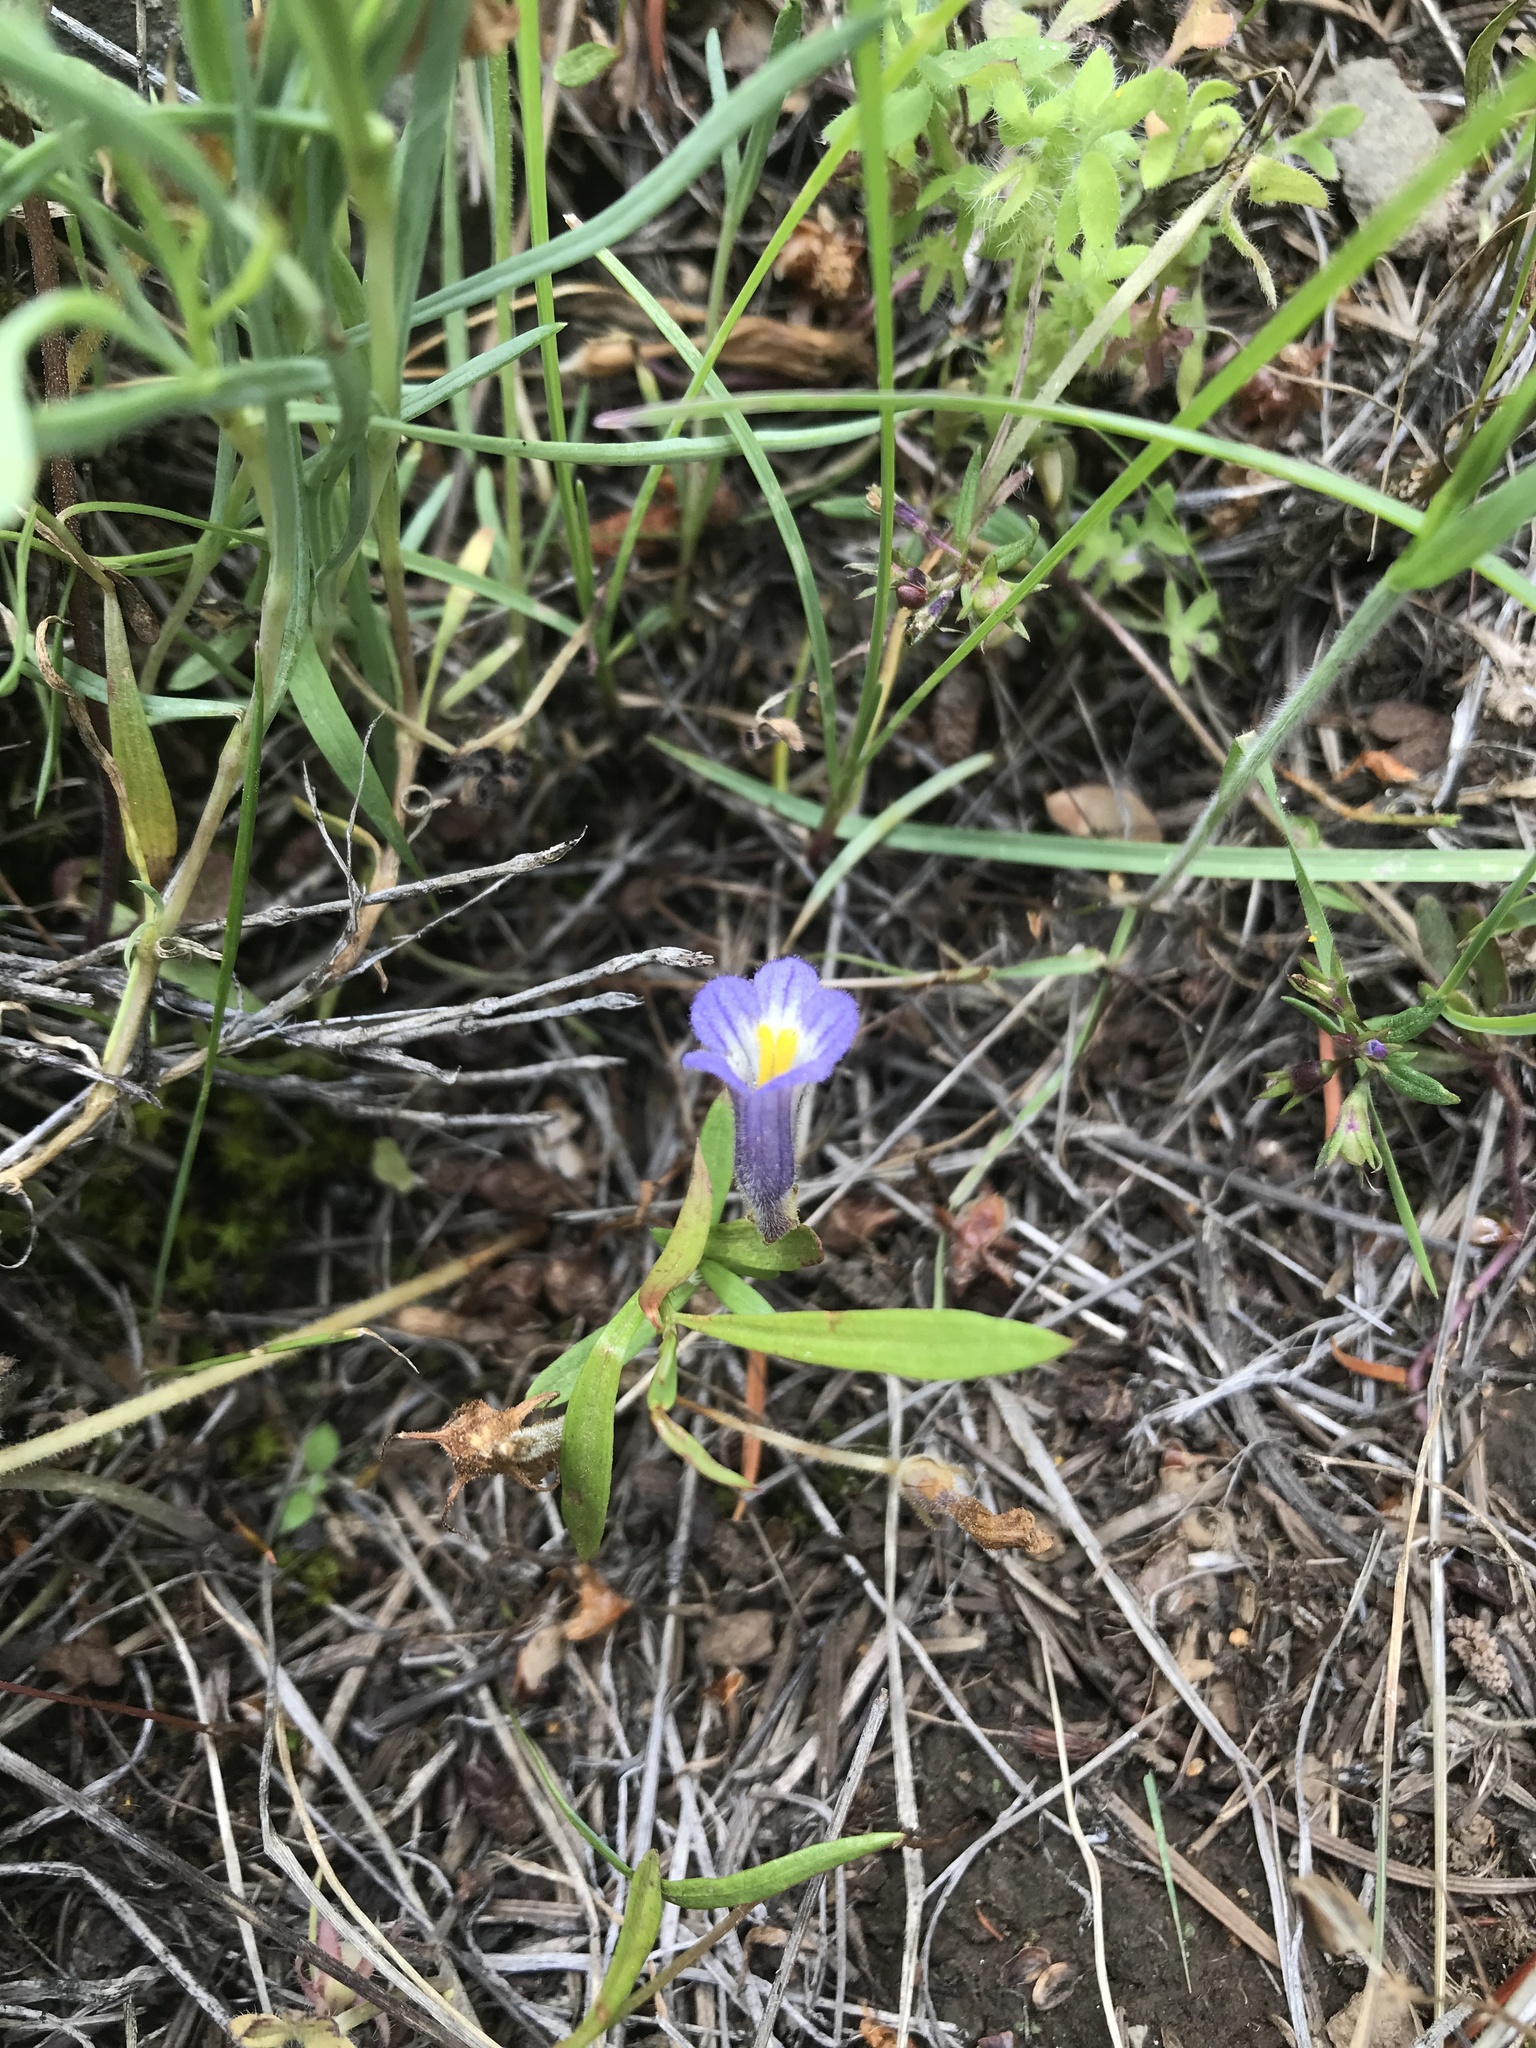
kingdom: Plantae
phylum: Tracheophyta
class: Magnoliopsida
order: Lamiales
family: Orobanchaceae
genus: Aphyllon
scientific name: Aphyllon uniflorum
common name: One-flowered broomrape
